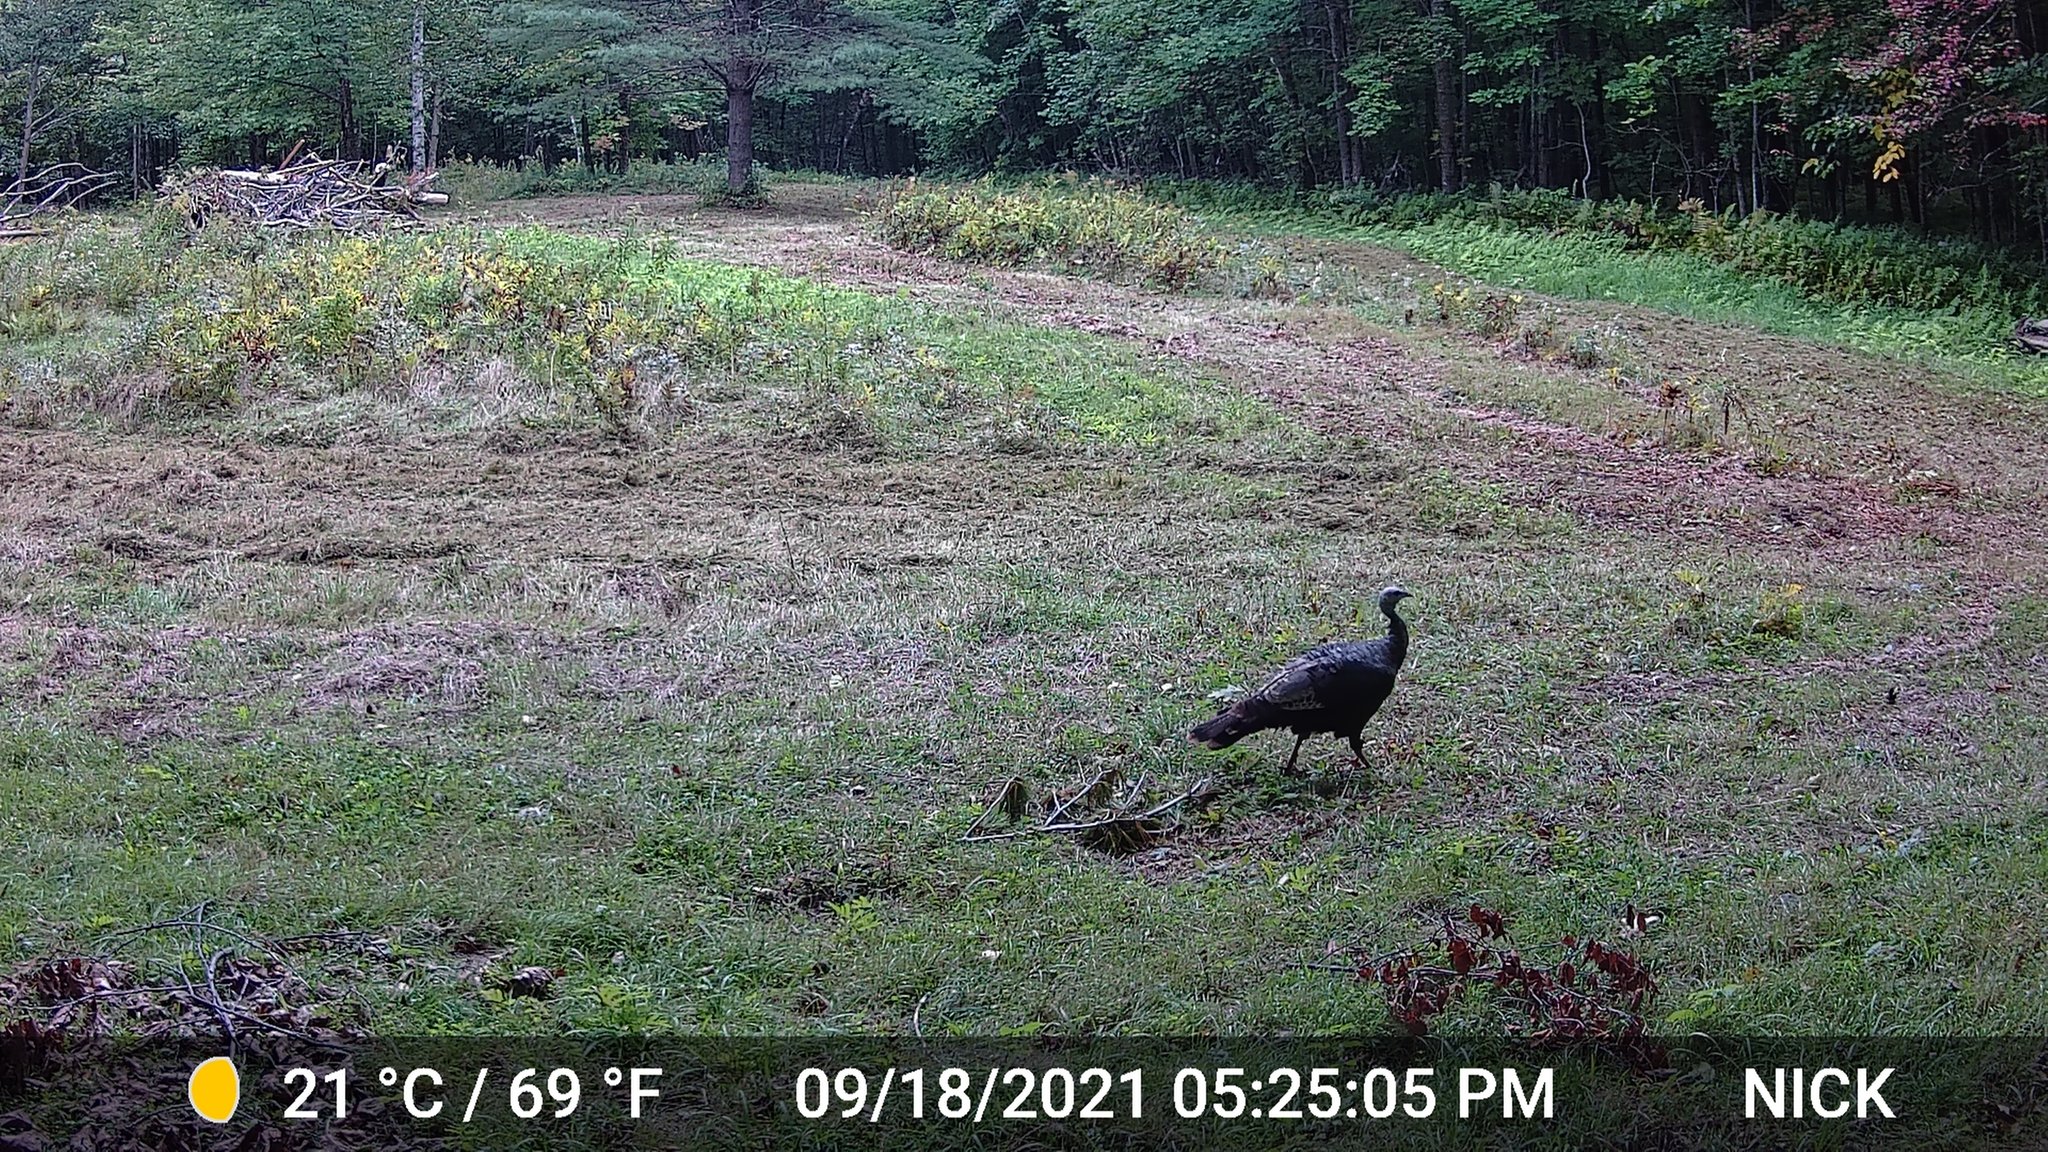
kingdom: Animalia
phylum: Chordata
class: Aves
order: Galliformes
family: Phasianidae
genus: Meleagris
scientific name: Meleagris gallopavo
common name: Wild turkey
